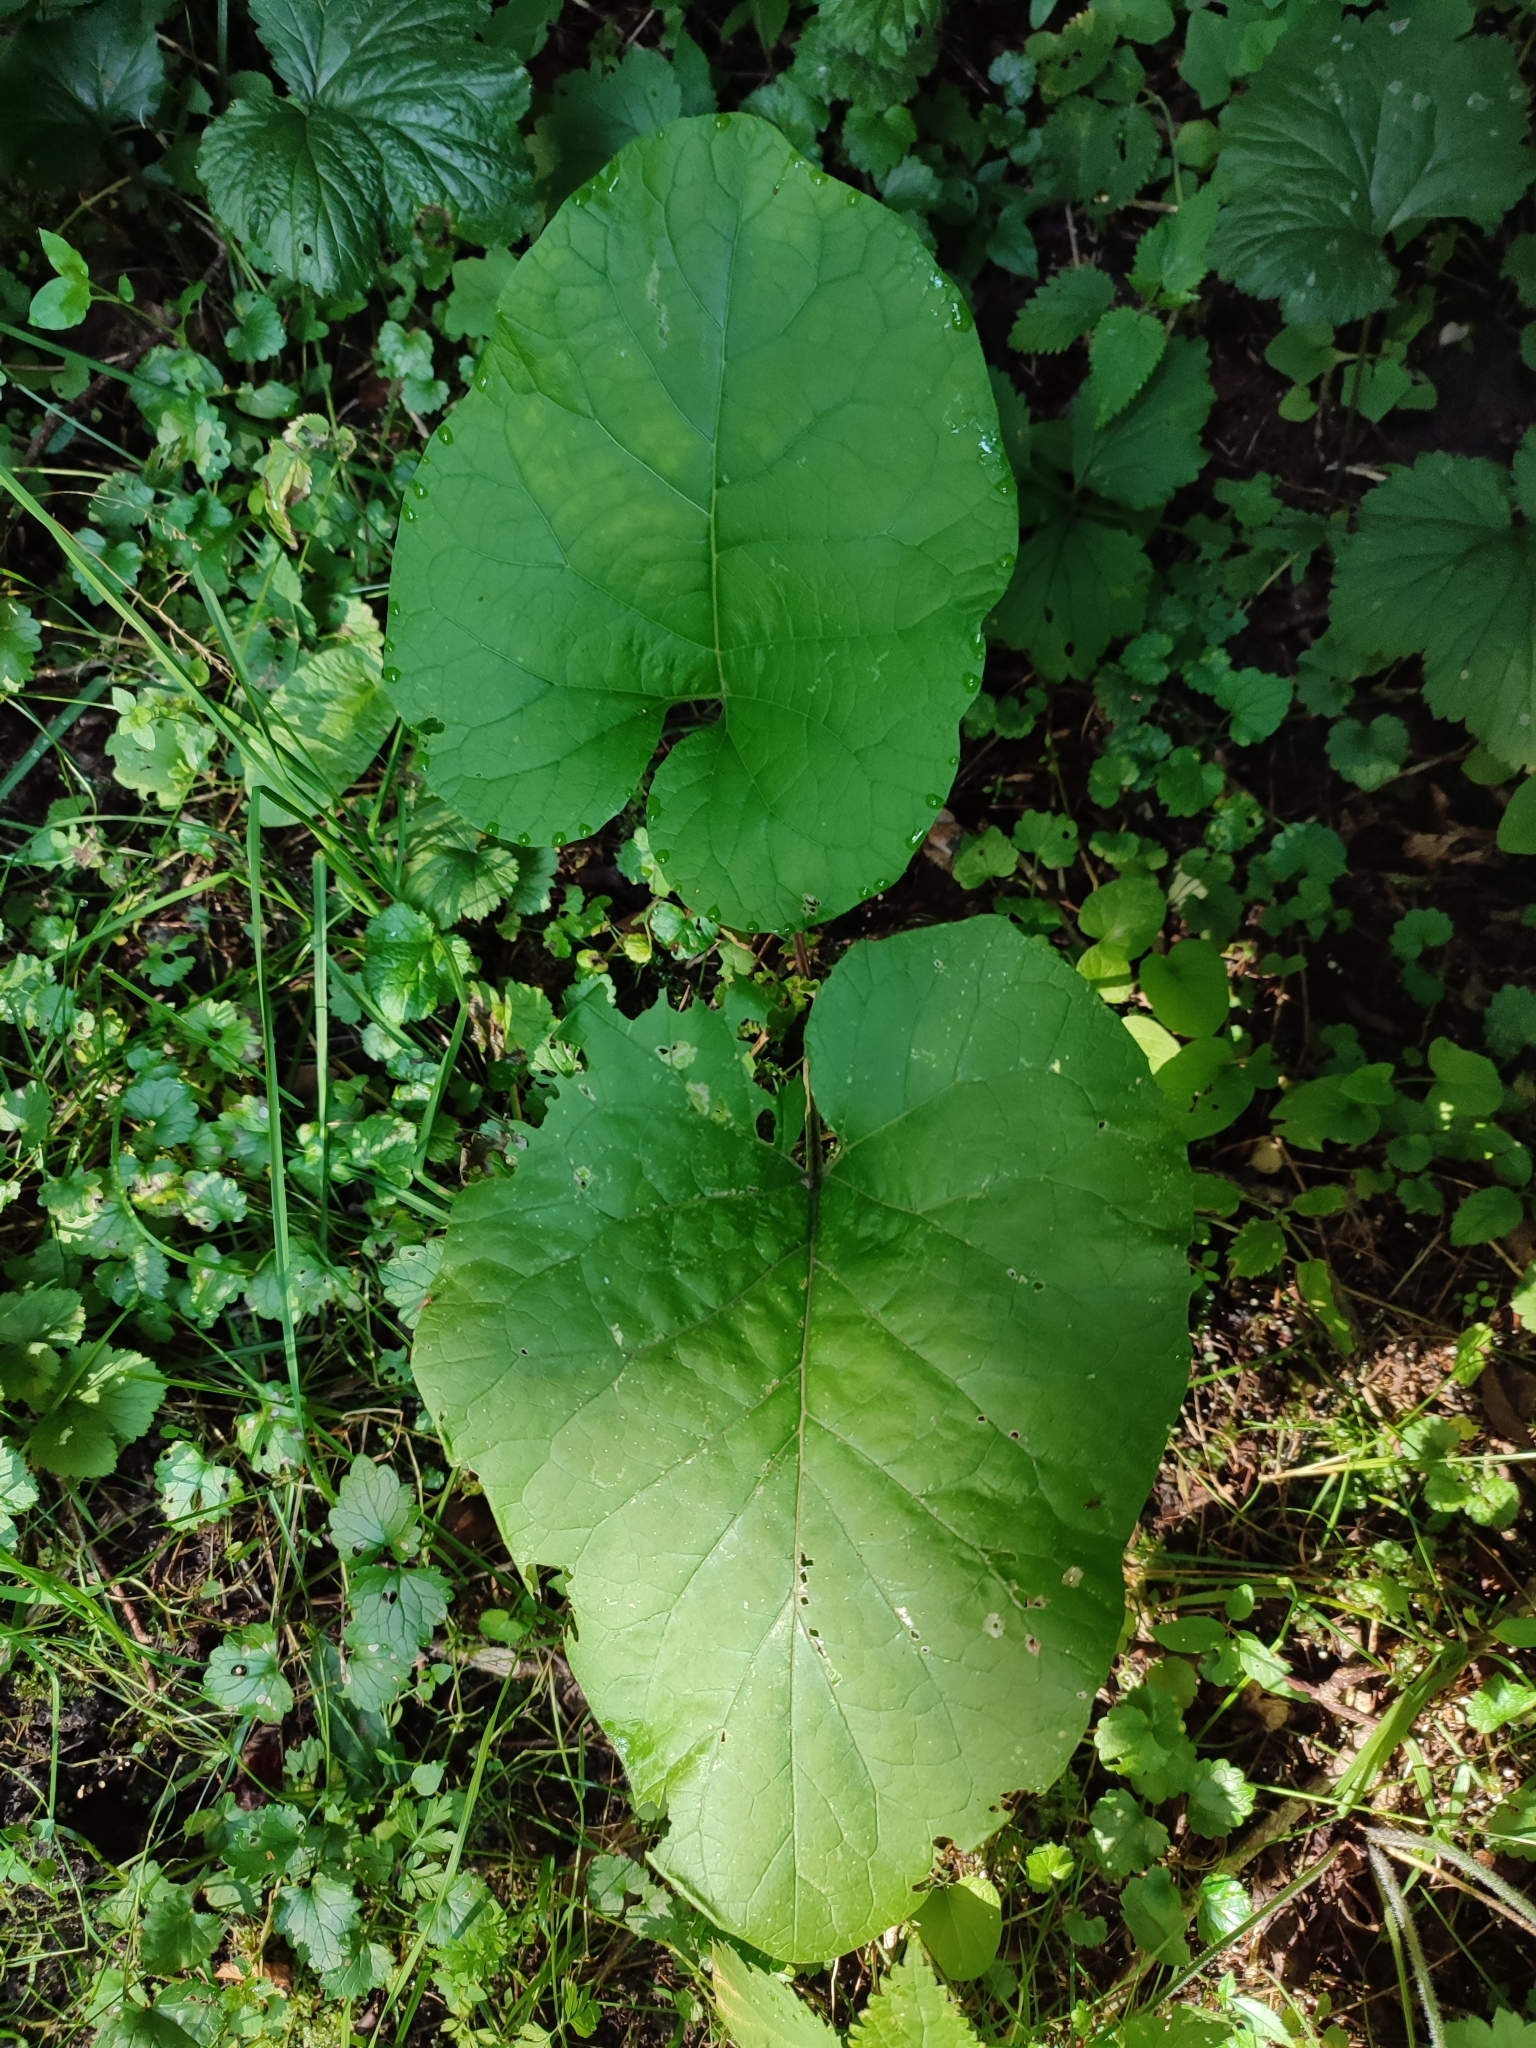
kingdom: Plantae
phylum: Tracheophyta
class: Magnoliopsida
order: Asterales
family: Asteraceae
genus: Arctium
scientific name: Arctium lappa
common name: Greater burdock
